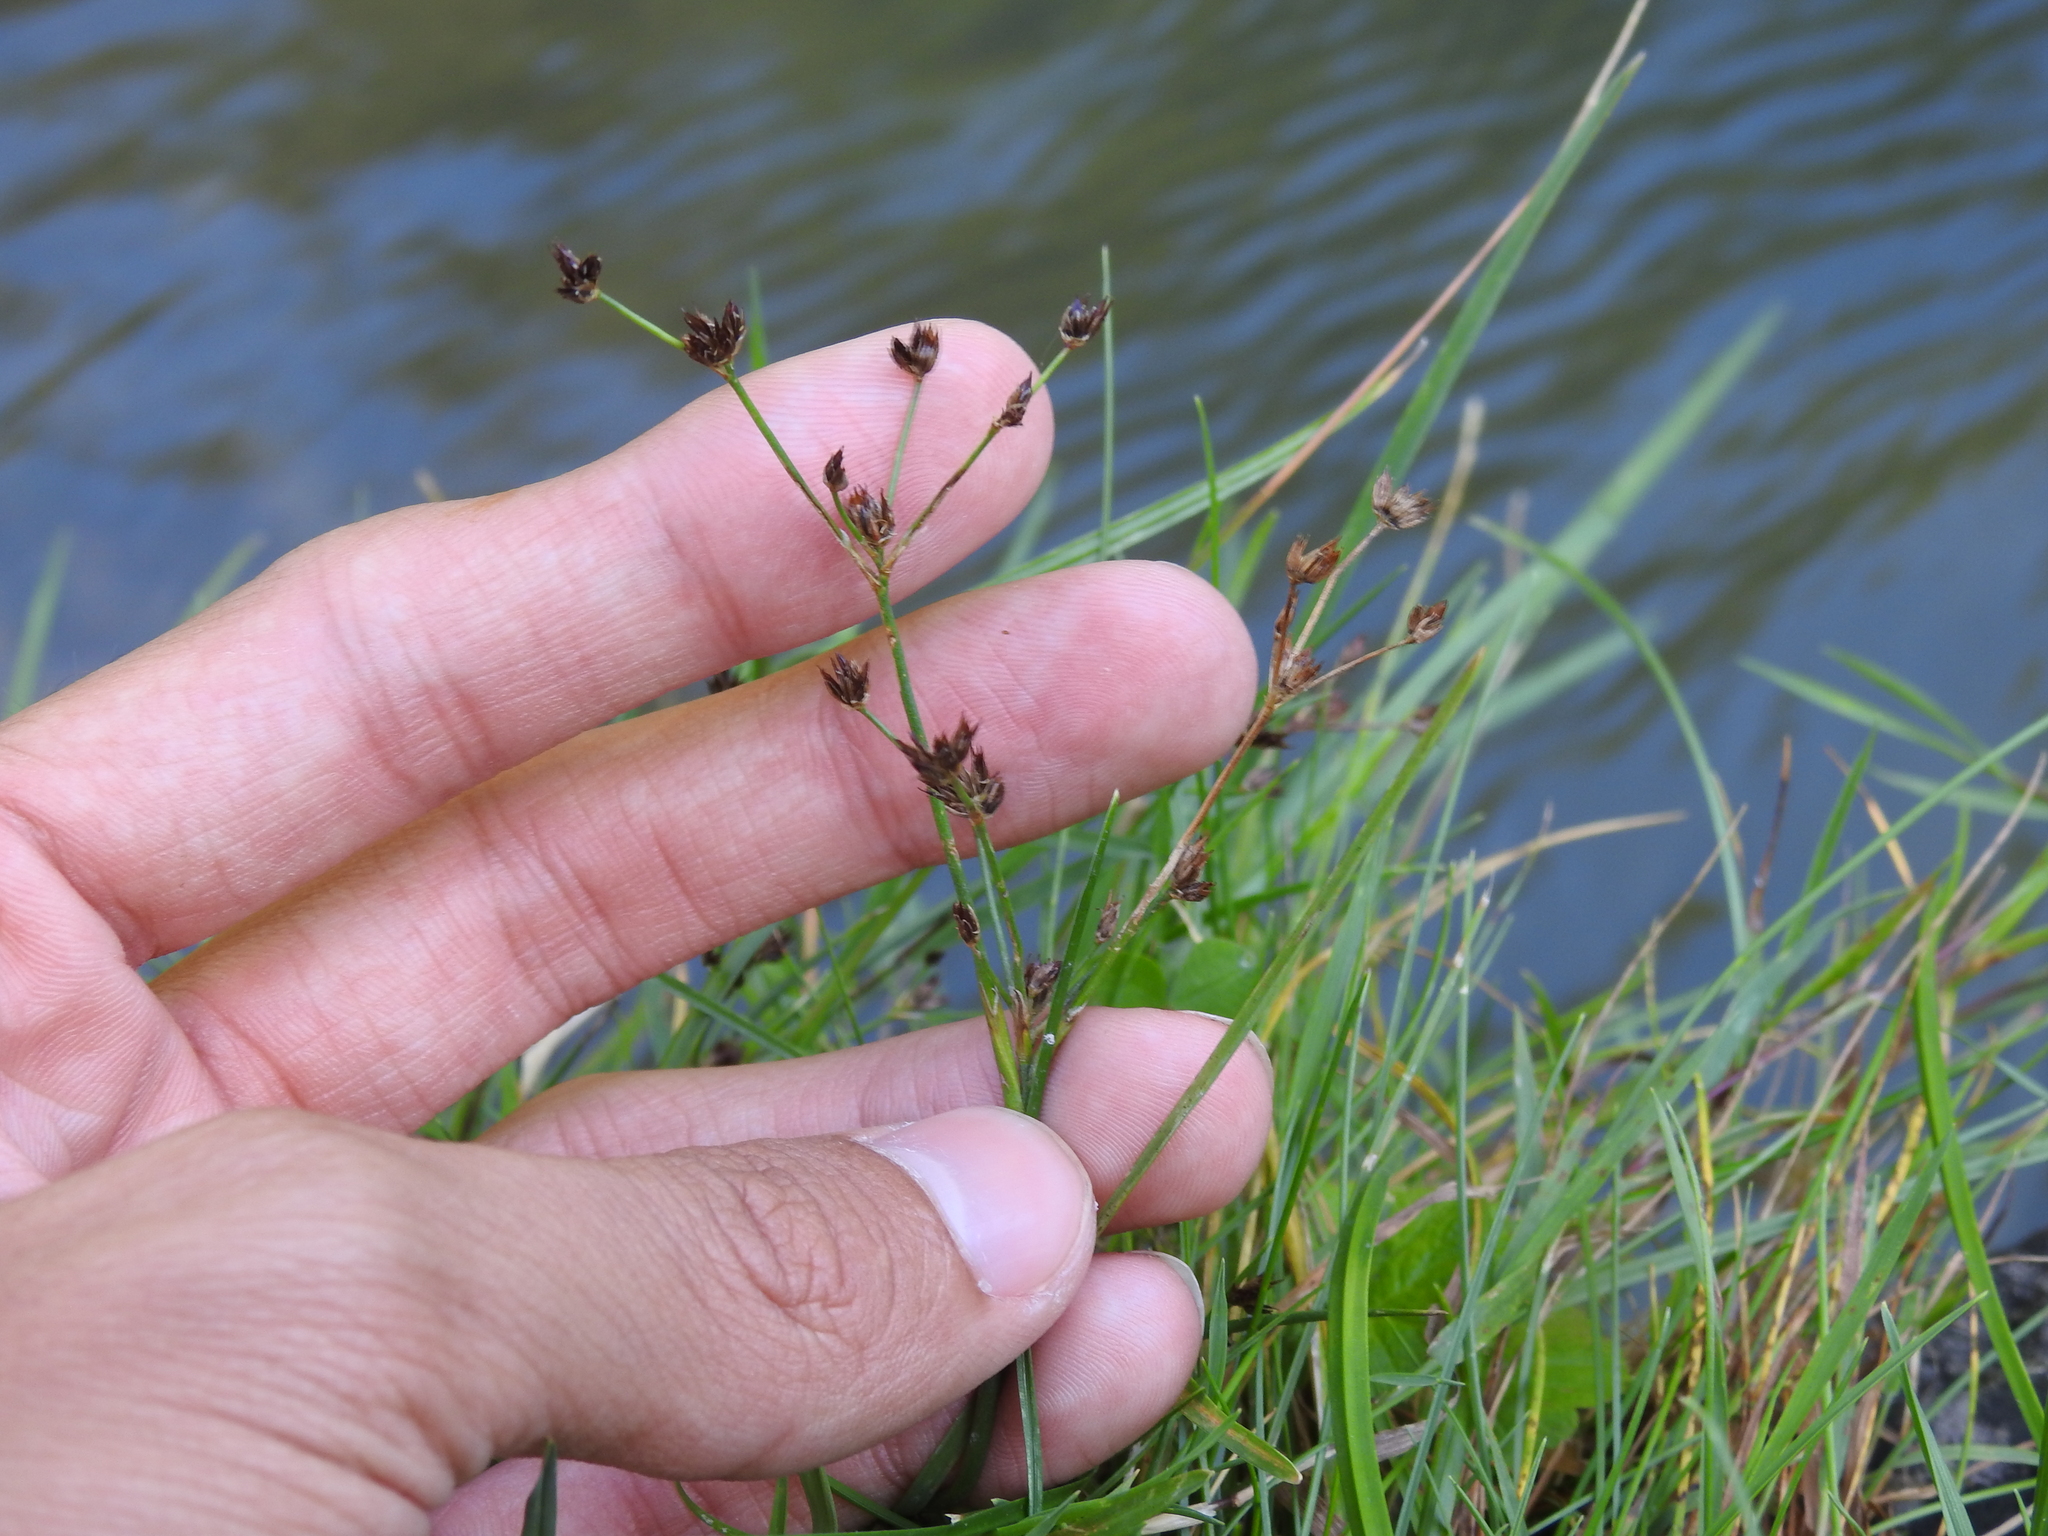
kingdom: Plantae
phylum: Tracheophyta
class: Liliopsida
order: Poales
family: Juncaceae
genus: Juncus
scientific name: Juncus articulatus
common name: Jointed rush
